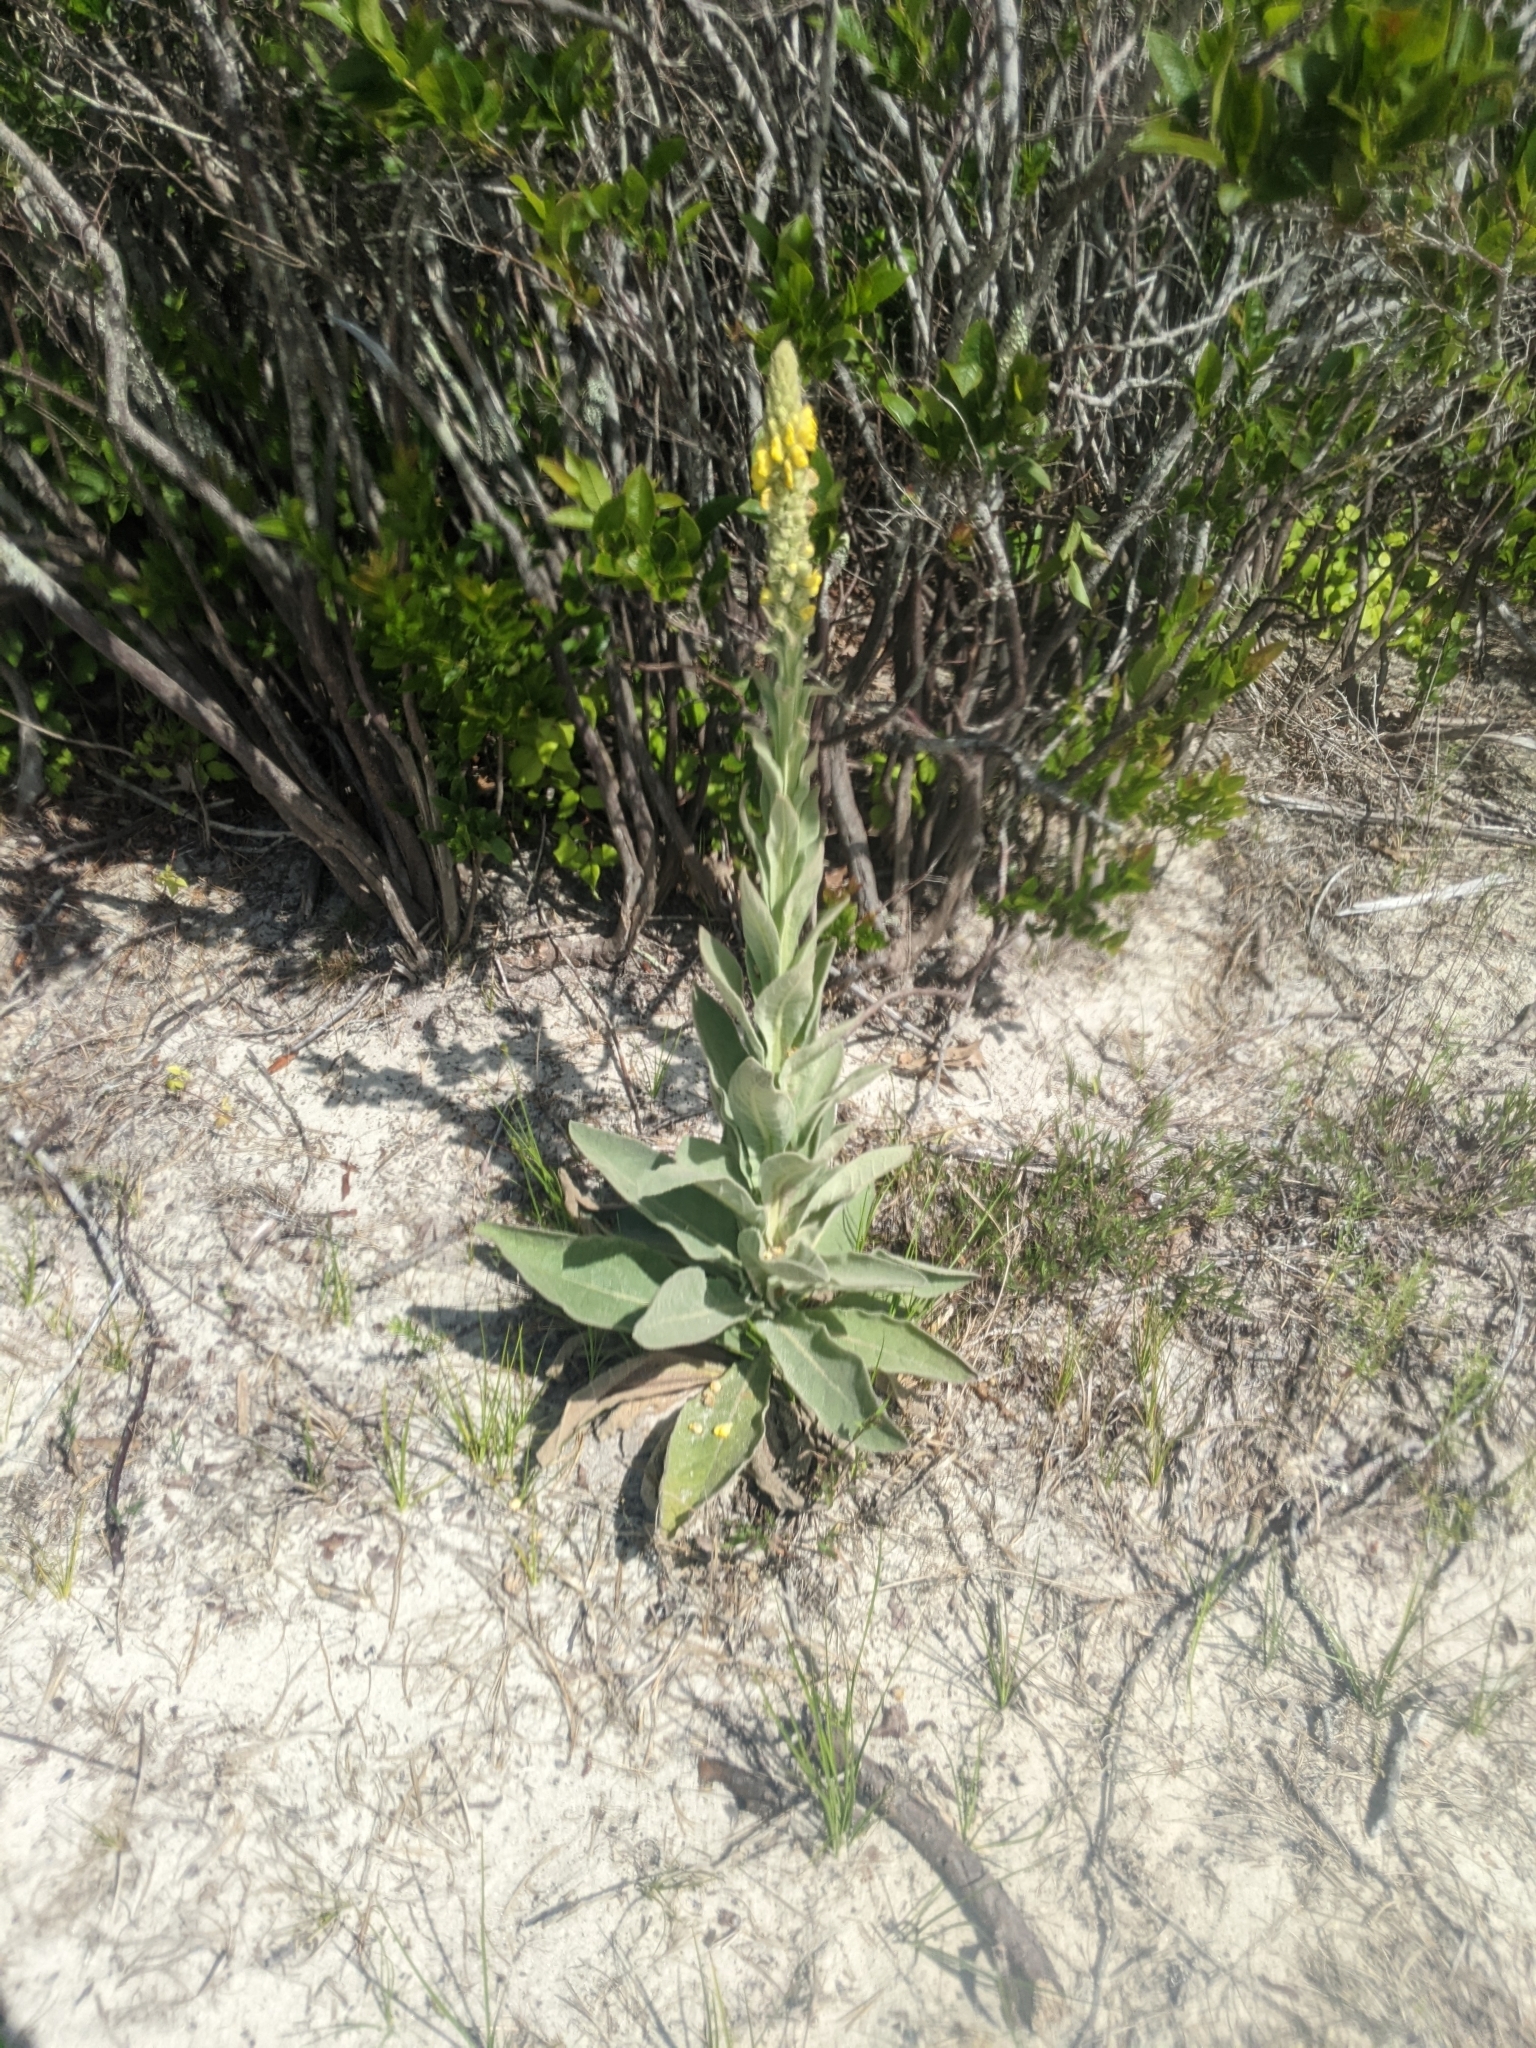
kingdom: Plantae
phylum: Tracheophyta
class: Magnoliopsida
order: Lamiales
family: Scrophulariaceae
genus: Verbascum
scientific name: Verbascum thapsus
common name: Common mullein
